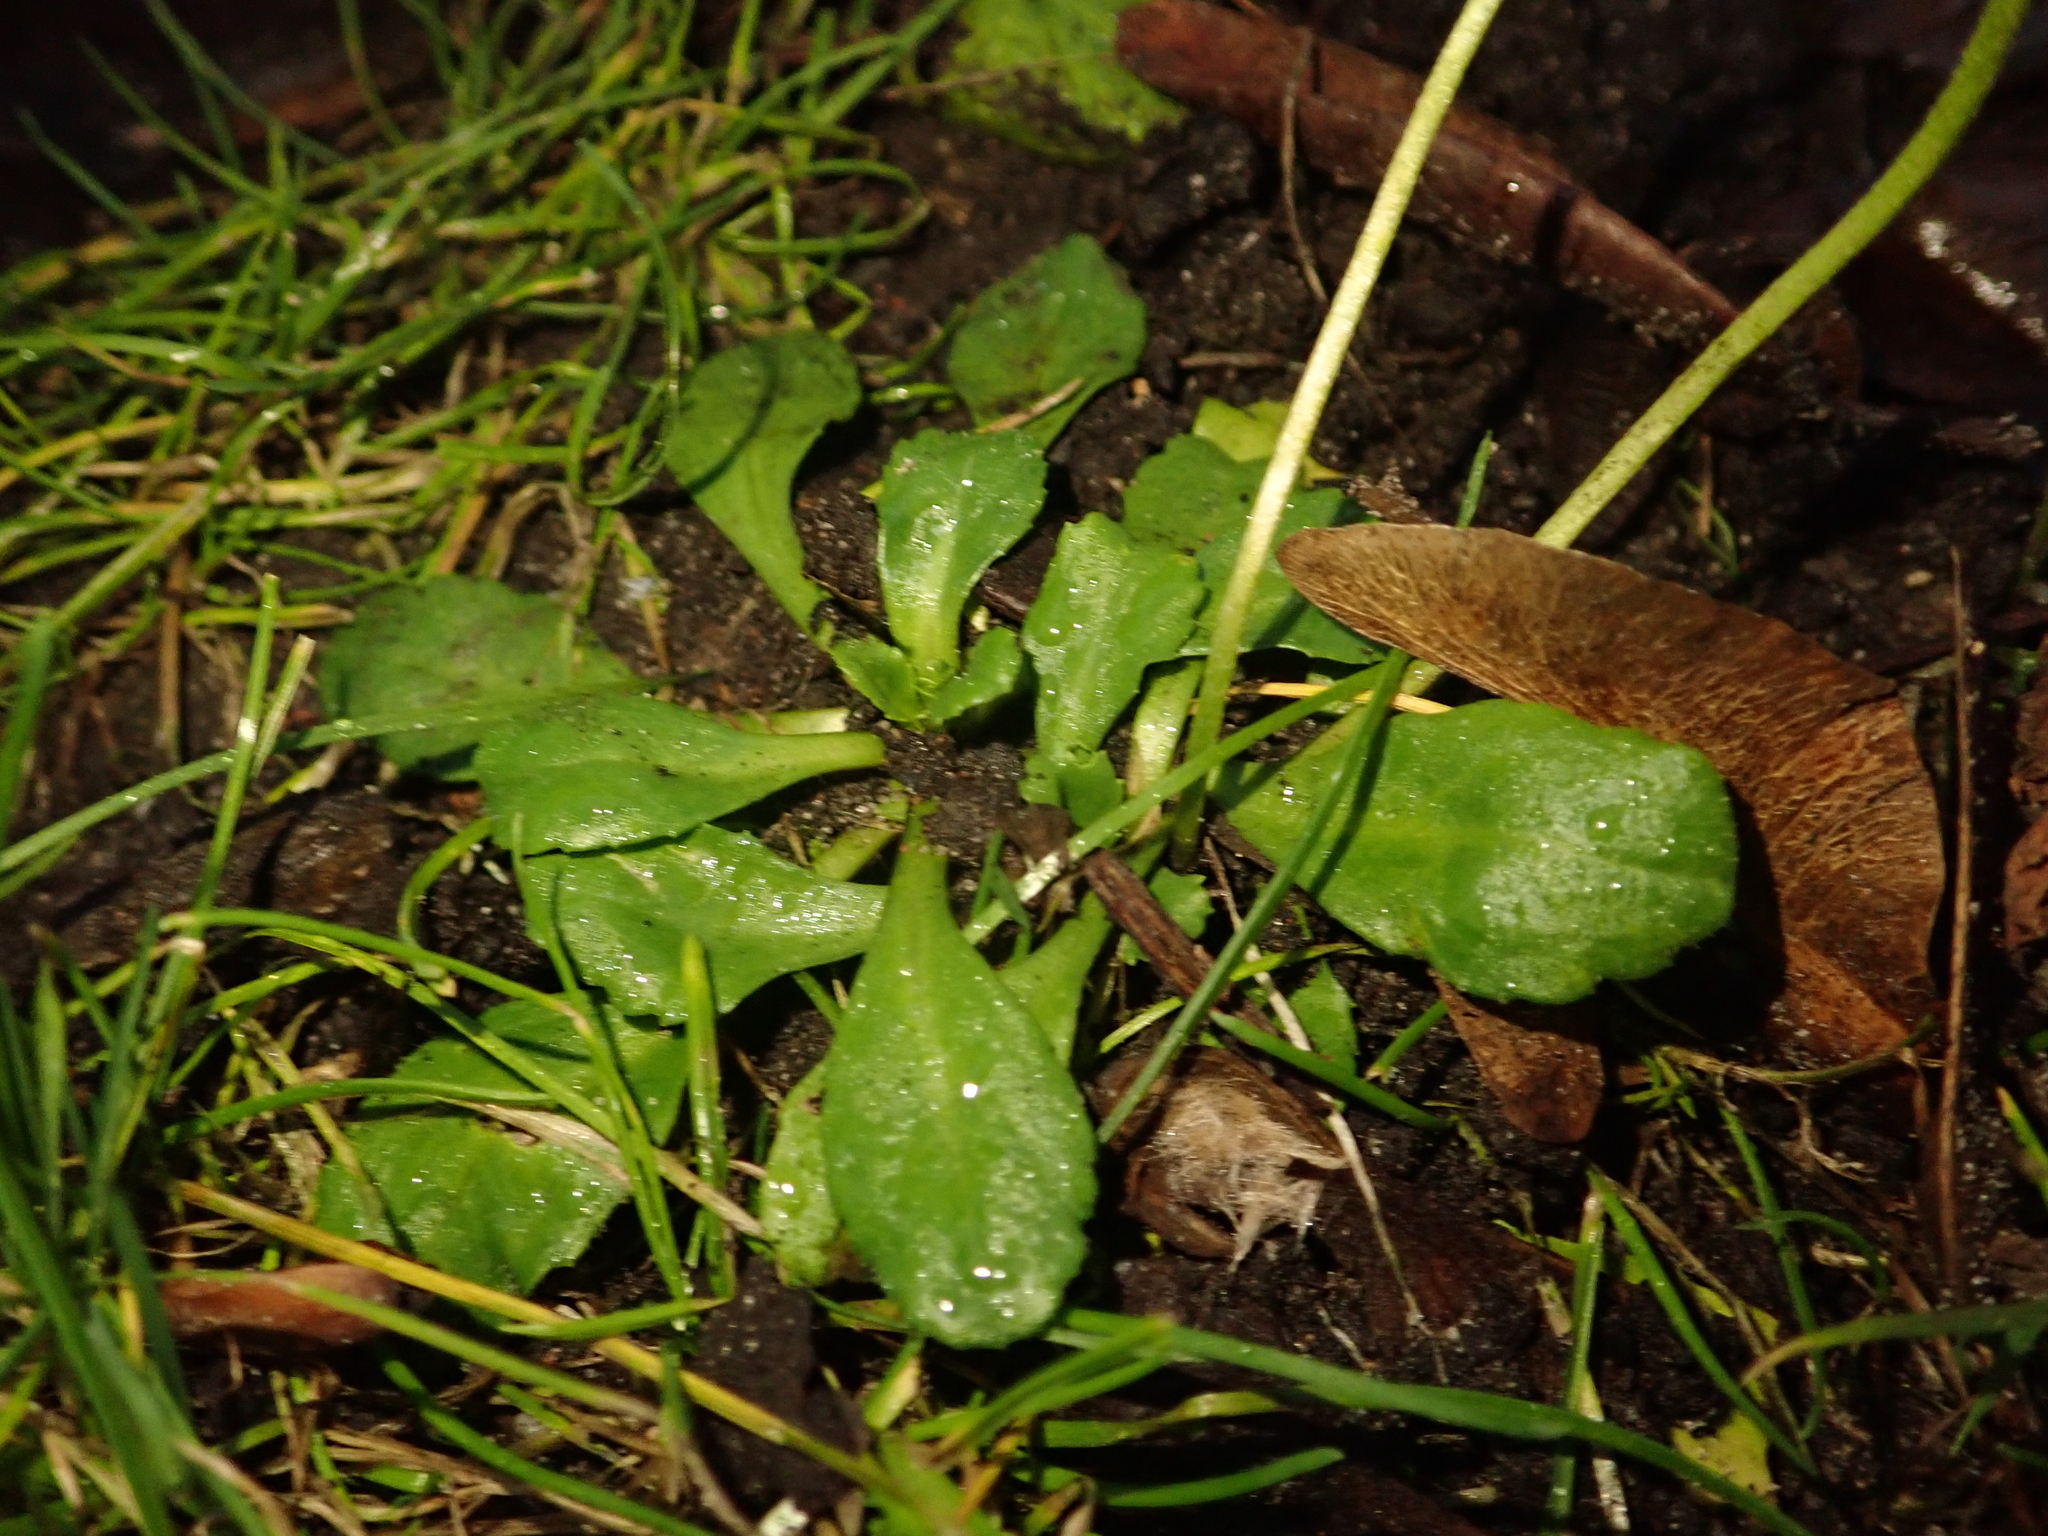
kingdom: Plantae
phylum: Tracheophyta
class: Magnoliopsida
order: Asterales
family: Asteraceae
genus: Bellis
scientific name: Bellis perennis
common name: Lawndaisy
